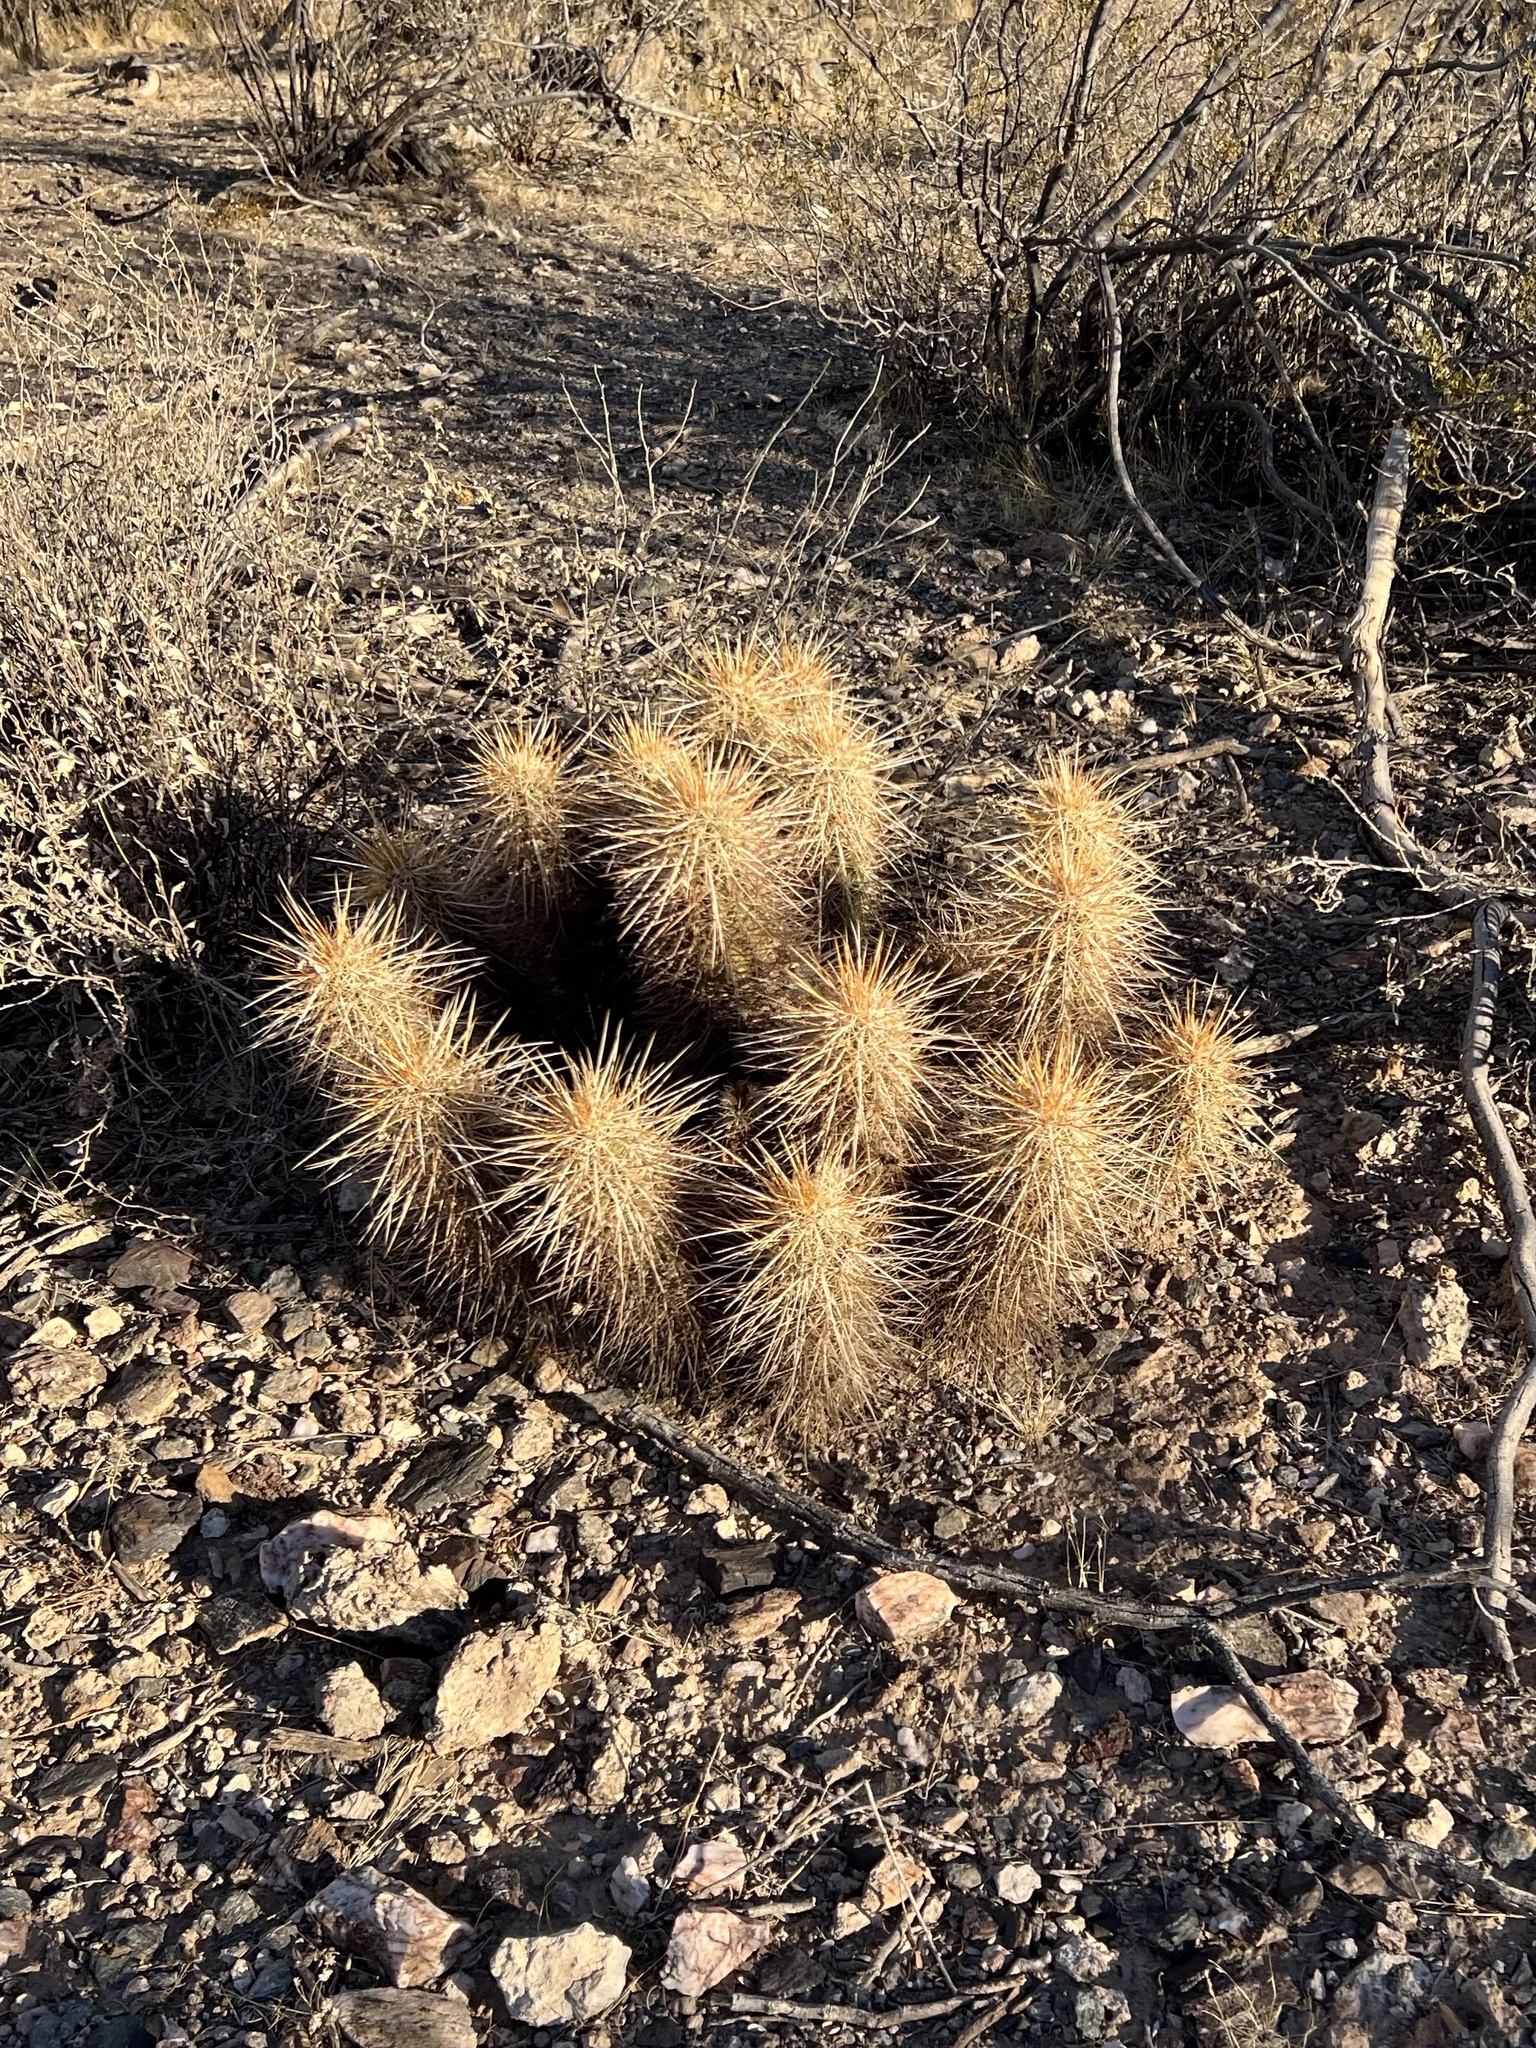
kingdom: Plantae
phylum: Tracheophyta
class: Magnoliopsida
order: Caryophyllales
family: Cactaceae
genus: Echinocereus
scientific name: Echinocereus engelmannii
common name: Engelmann's hedgehog cactus
